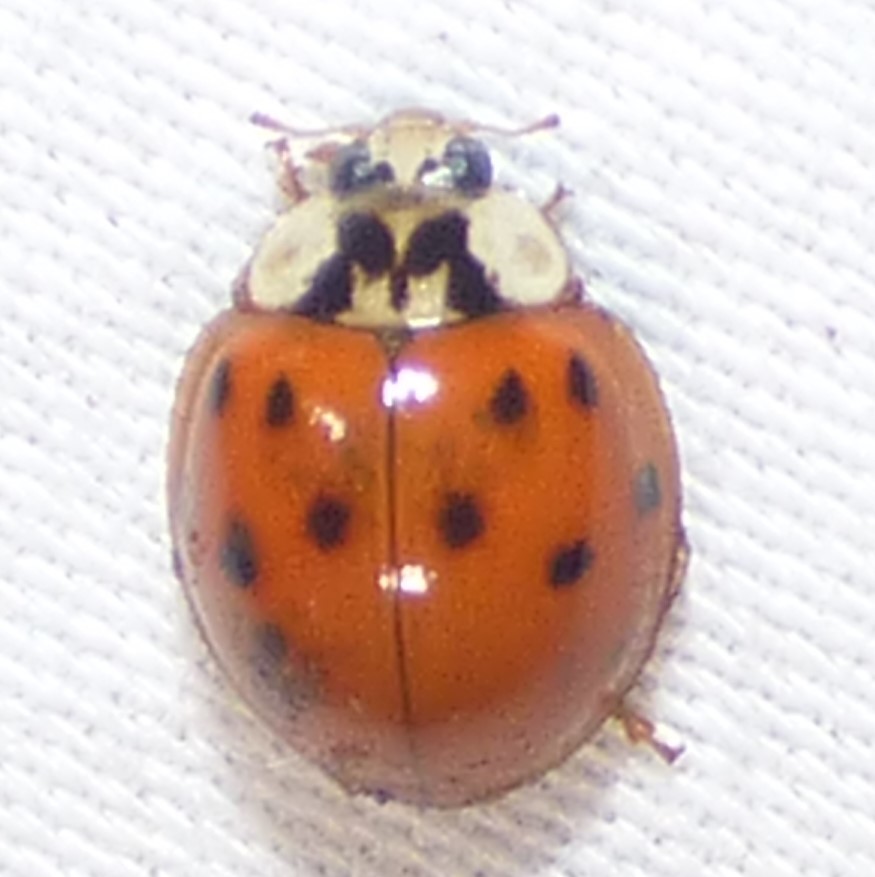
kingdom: Animalia
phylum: Arthropoda
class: Insecta
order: Coleoptera
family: Coccinellidae
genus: Harmonia
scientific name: Harmonia axyridis
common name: Harlequin ladybird
